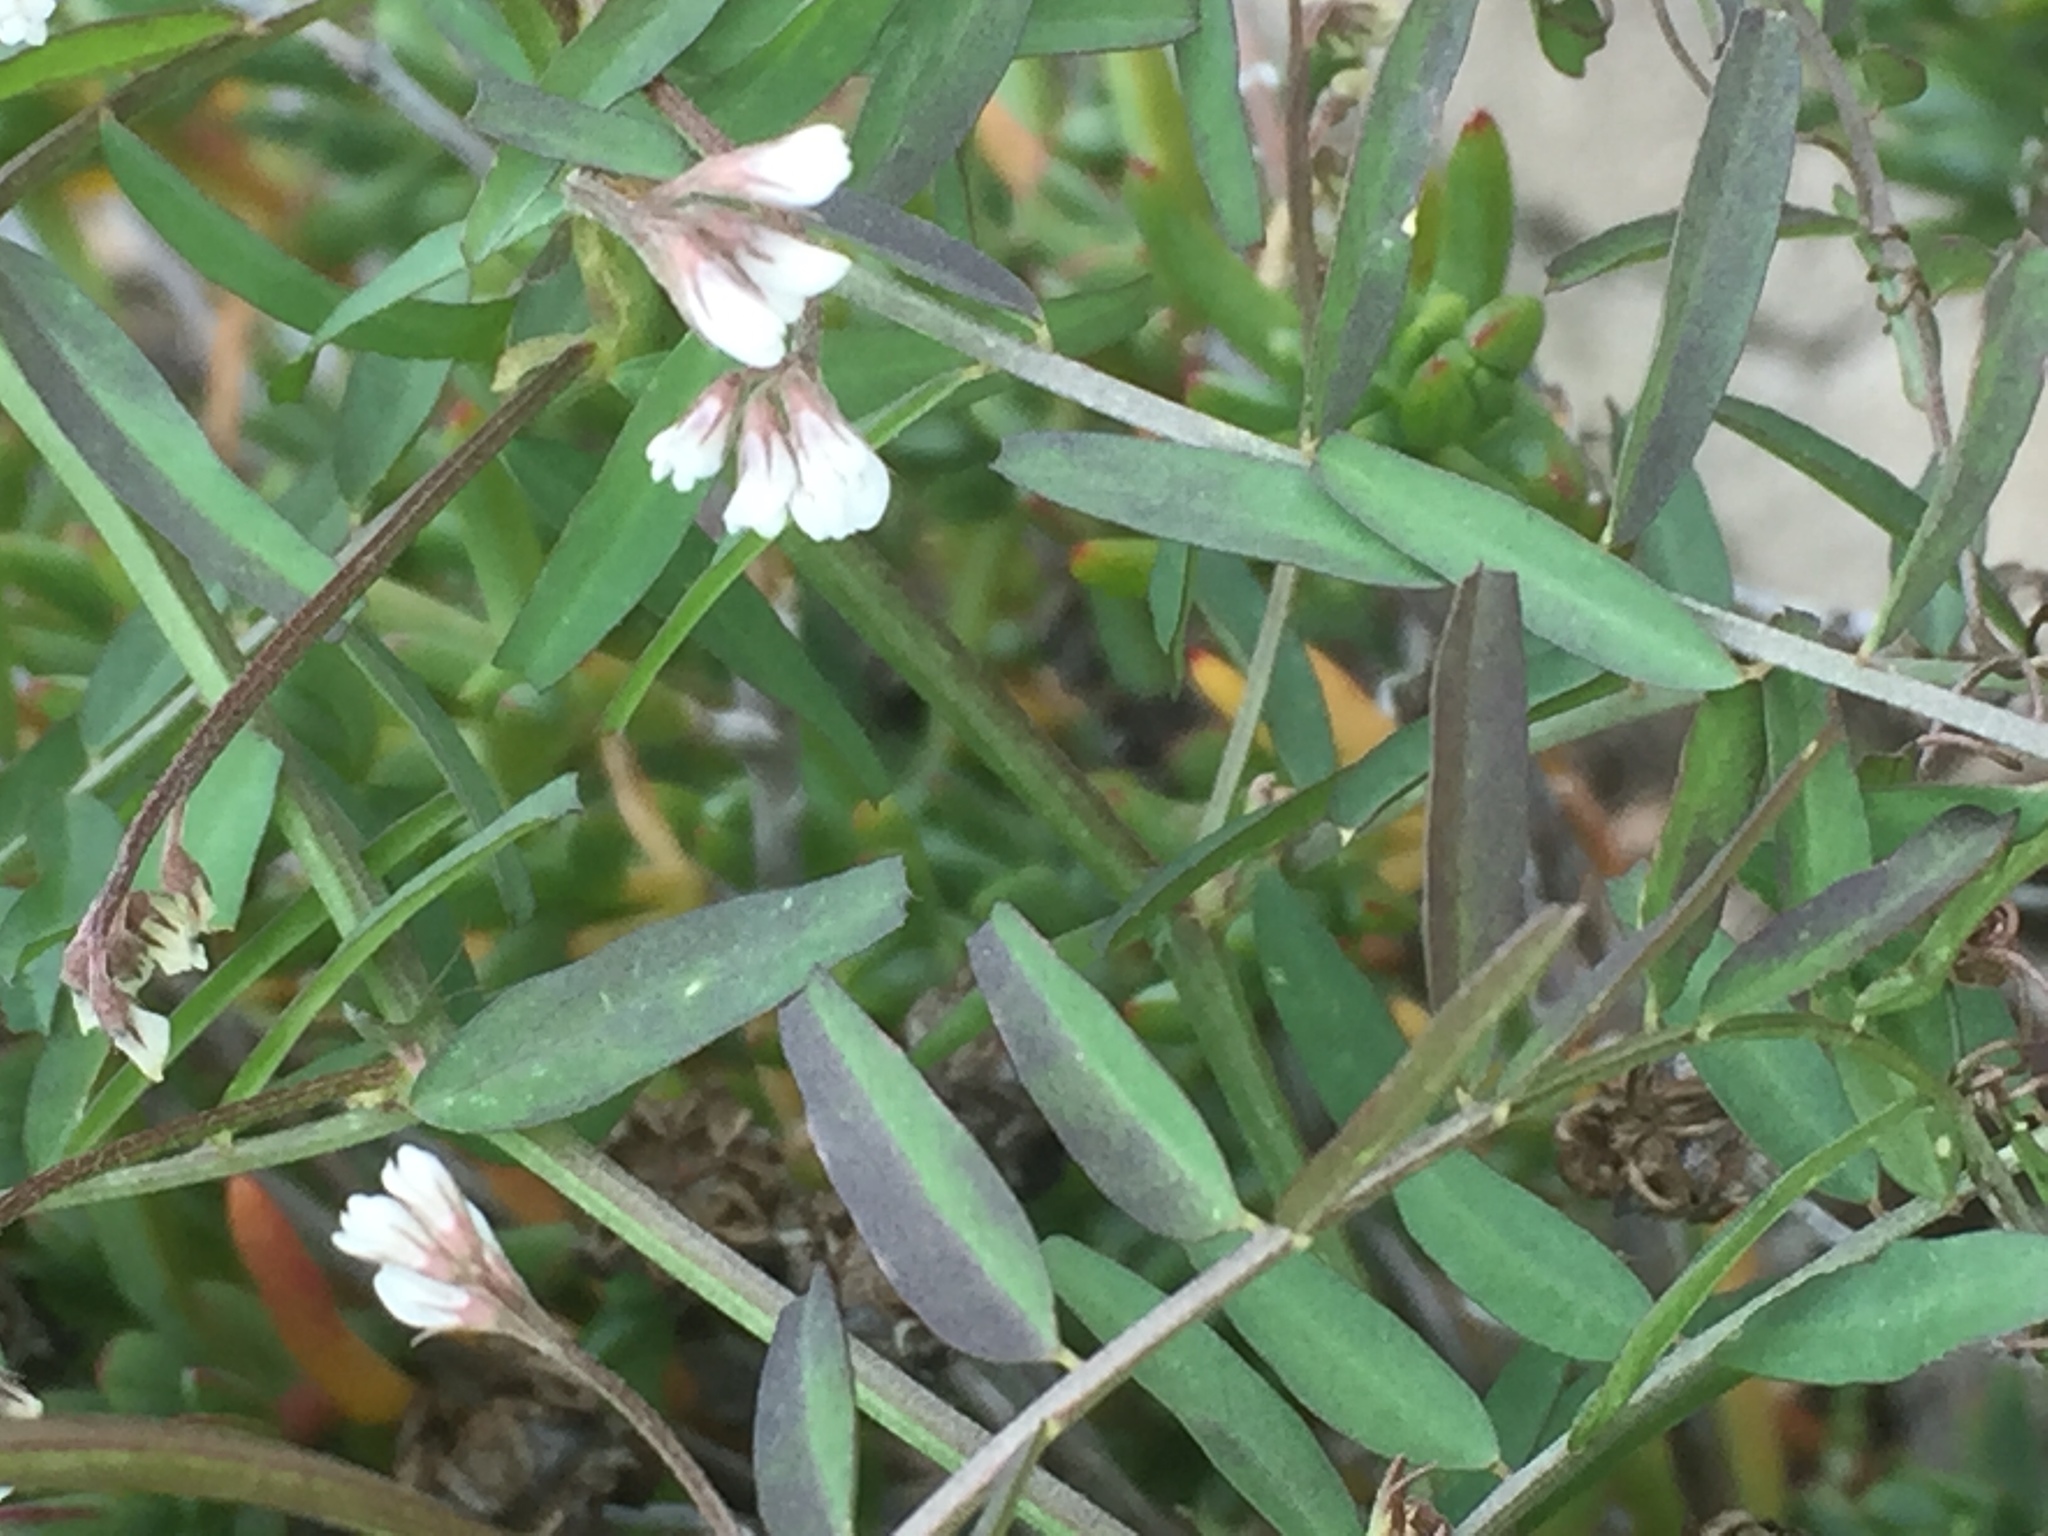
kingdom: Plantae
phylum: Tracheophyta
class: Magnoliopsida
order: Fabales
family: Fabaceae
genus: Vicia
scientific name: Vicia hirsuta
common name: Tiny vetch
